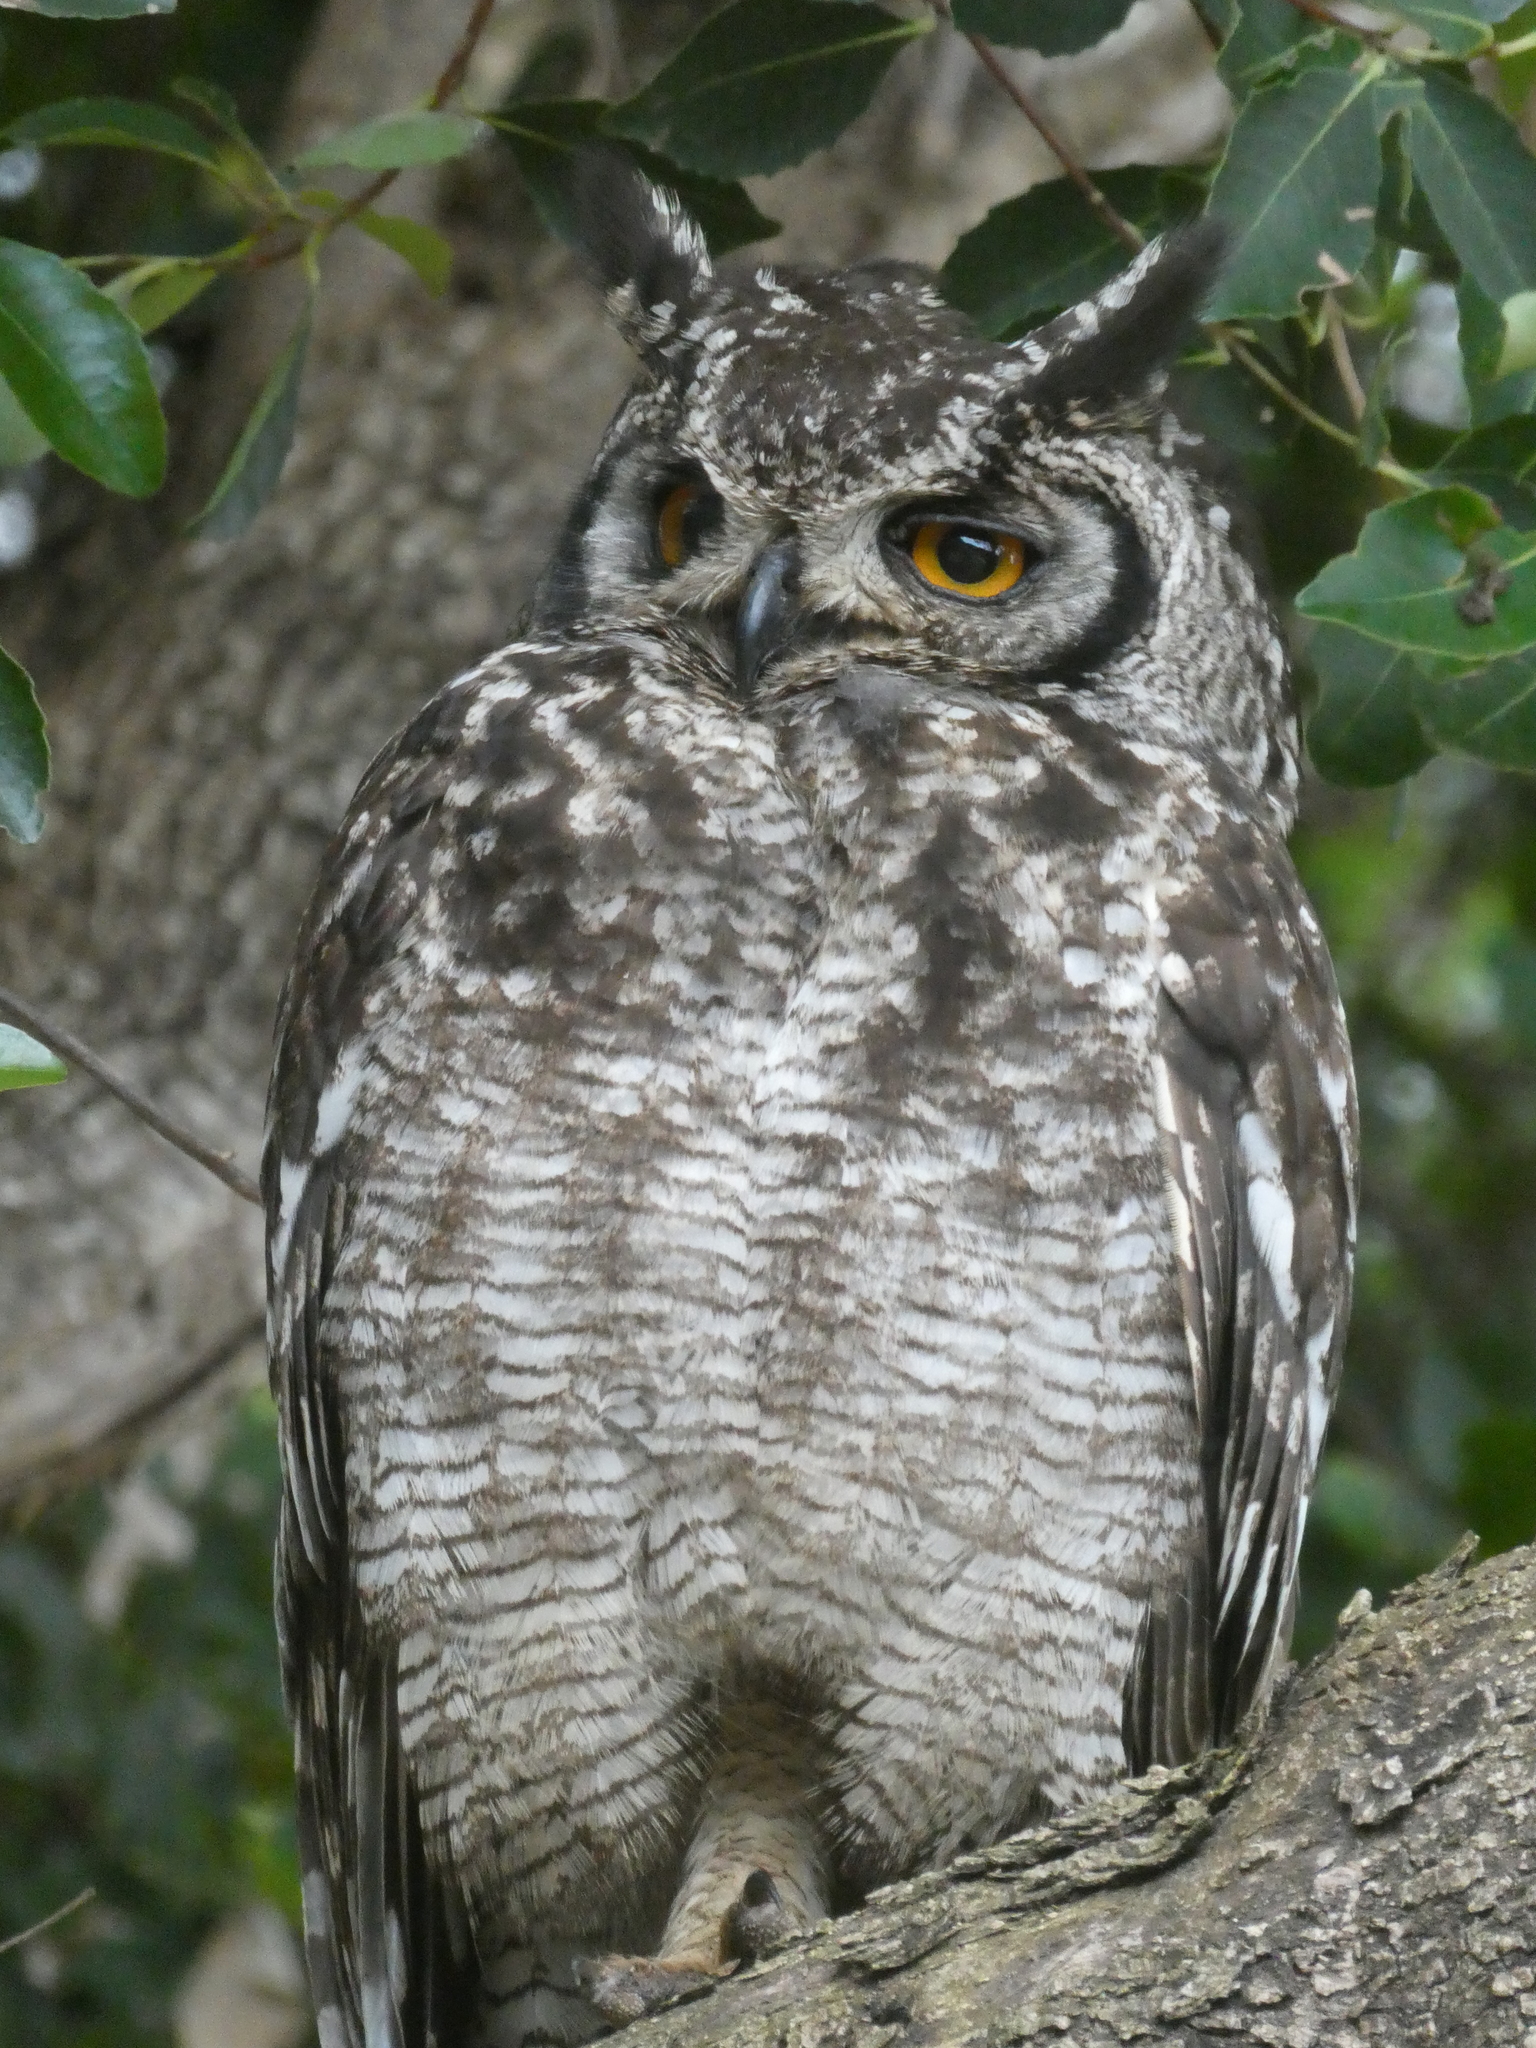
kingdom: Animalia
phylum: Chordata
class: Aves
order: Strigiformes
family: Strigidae
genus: Bubo
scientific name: Bubo africanus
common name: Spotted eagle-owl
